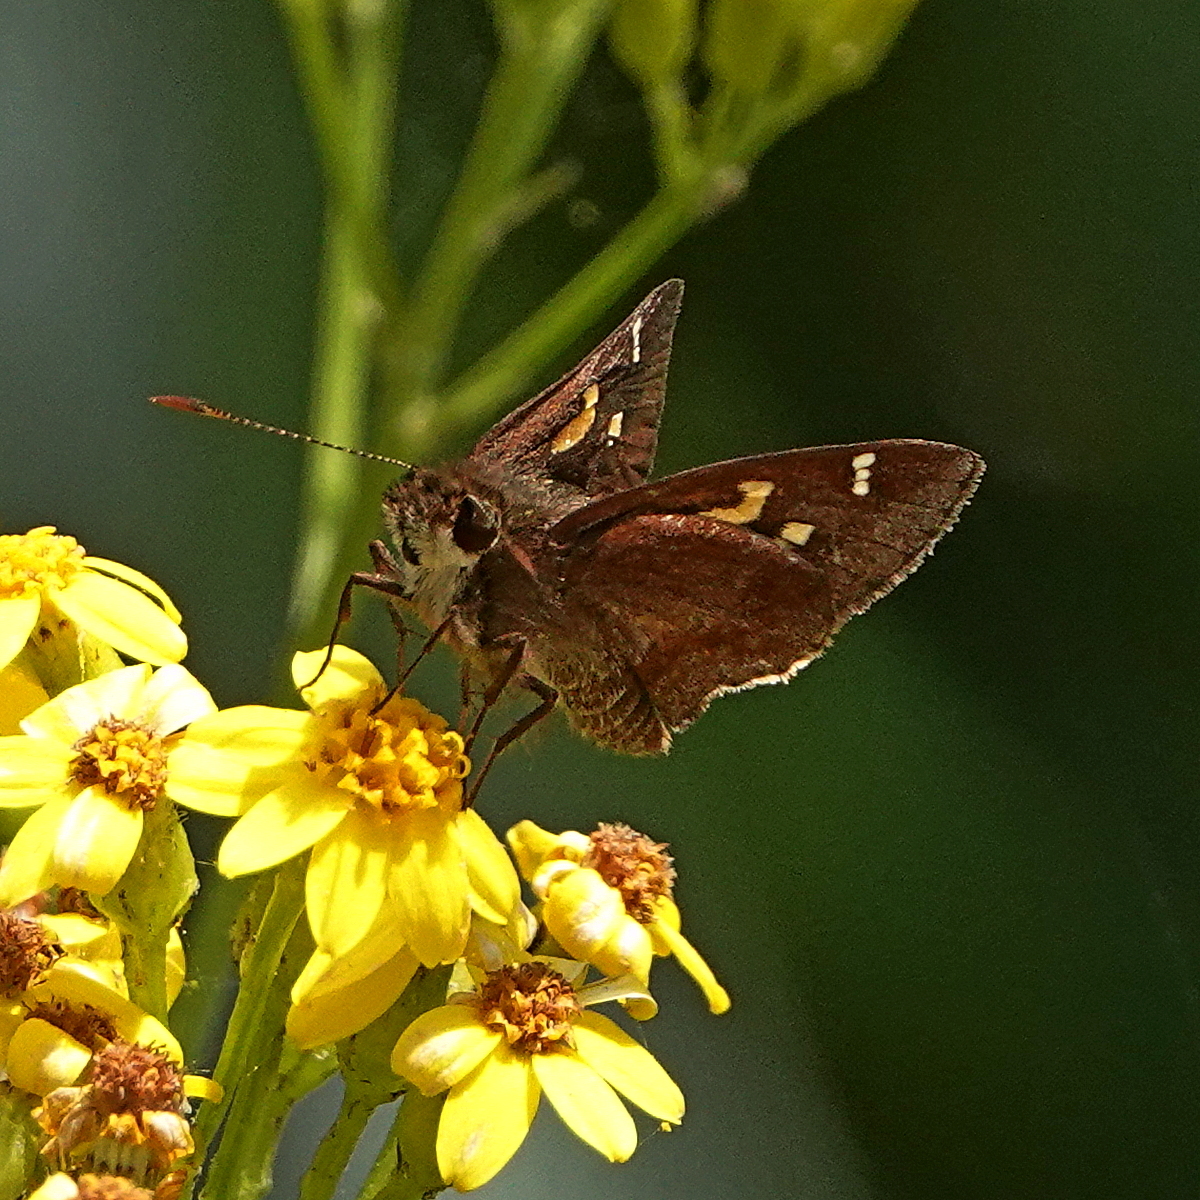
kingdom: Animalia
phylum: Arthropoda
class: Insecta
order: Lepidoptera
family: Hesperiidae
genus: Toxidia
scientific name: Toxidia doubledayi
